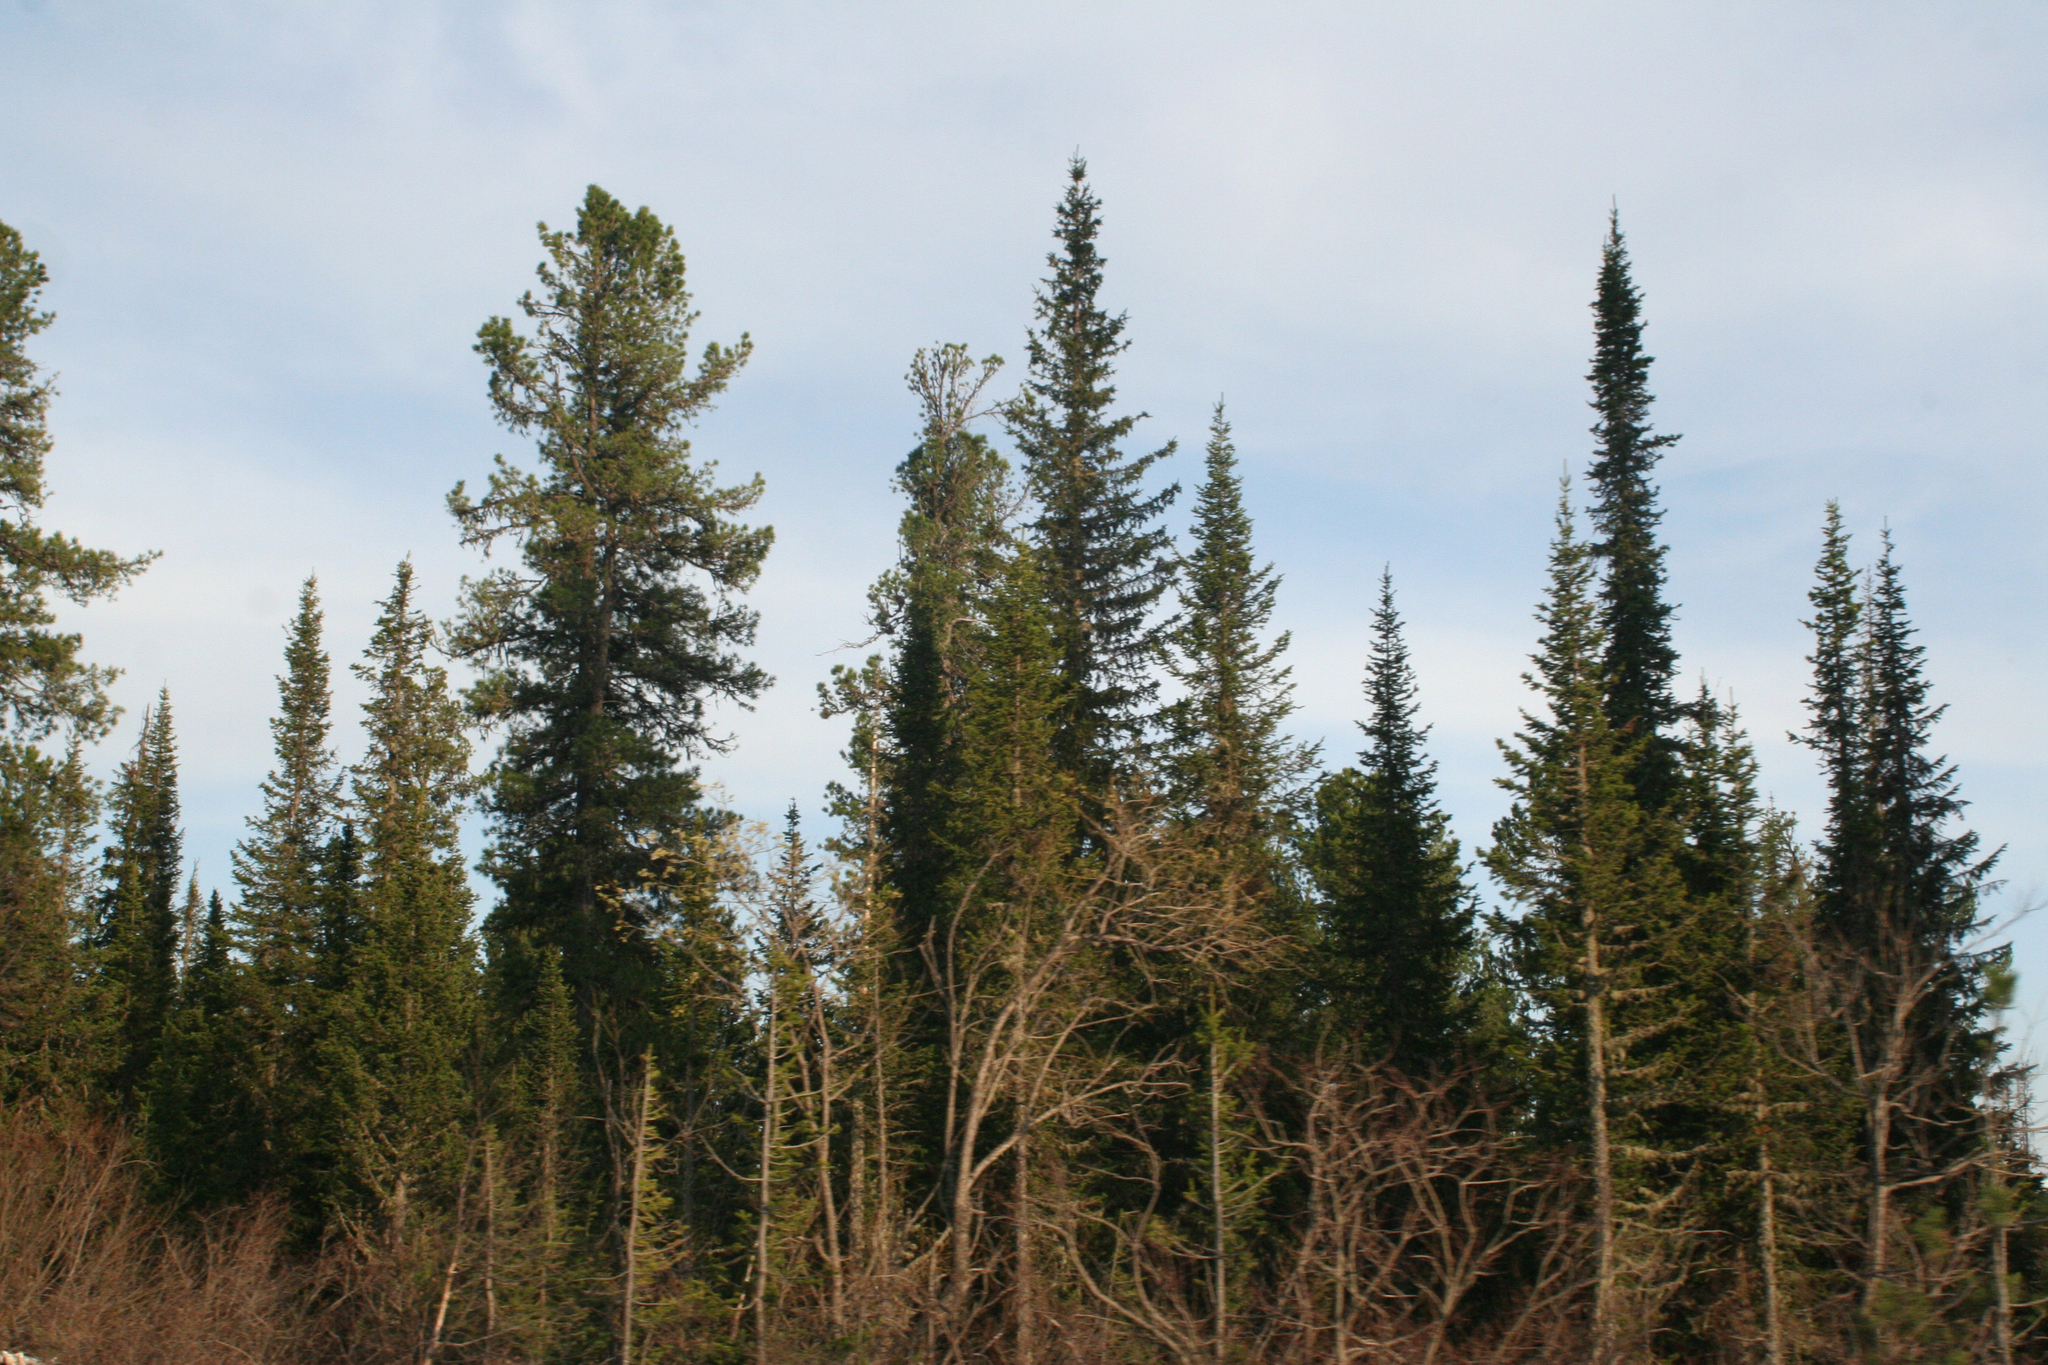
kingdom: Plantae
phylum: Tracheophyta
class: Pinopsida
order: Pinales
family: Pinaceae
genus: Abies
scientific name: Abies sibirica
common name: Siberian fir
